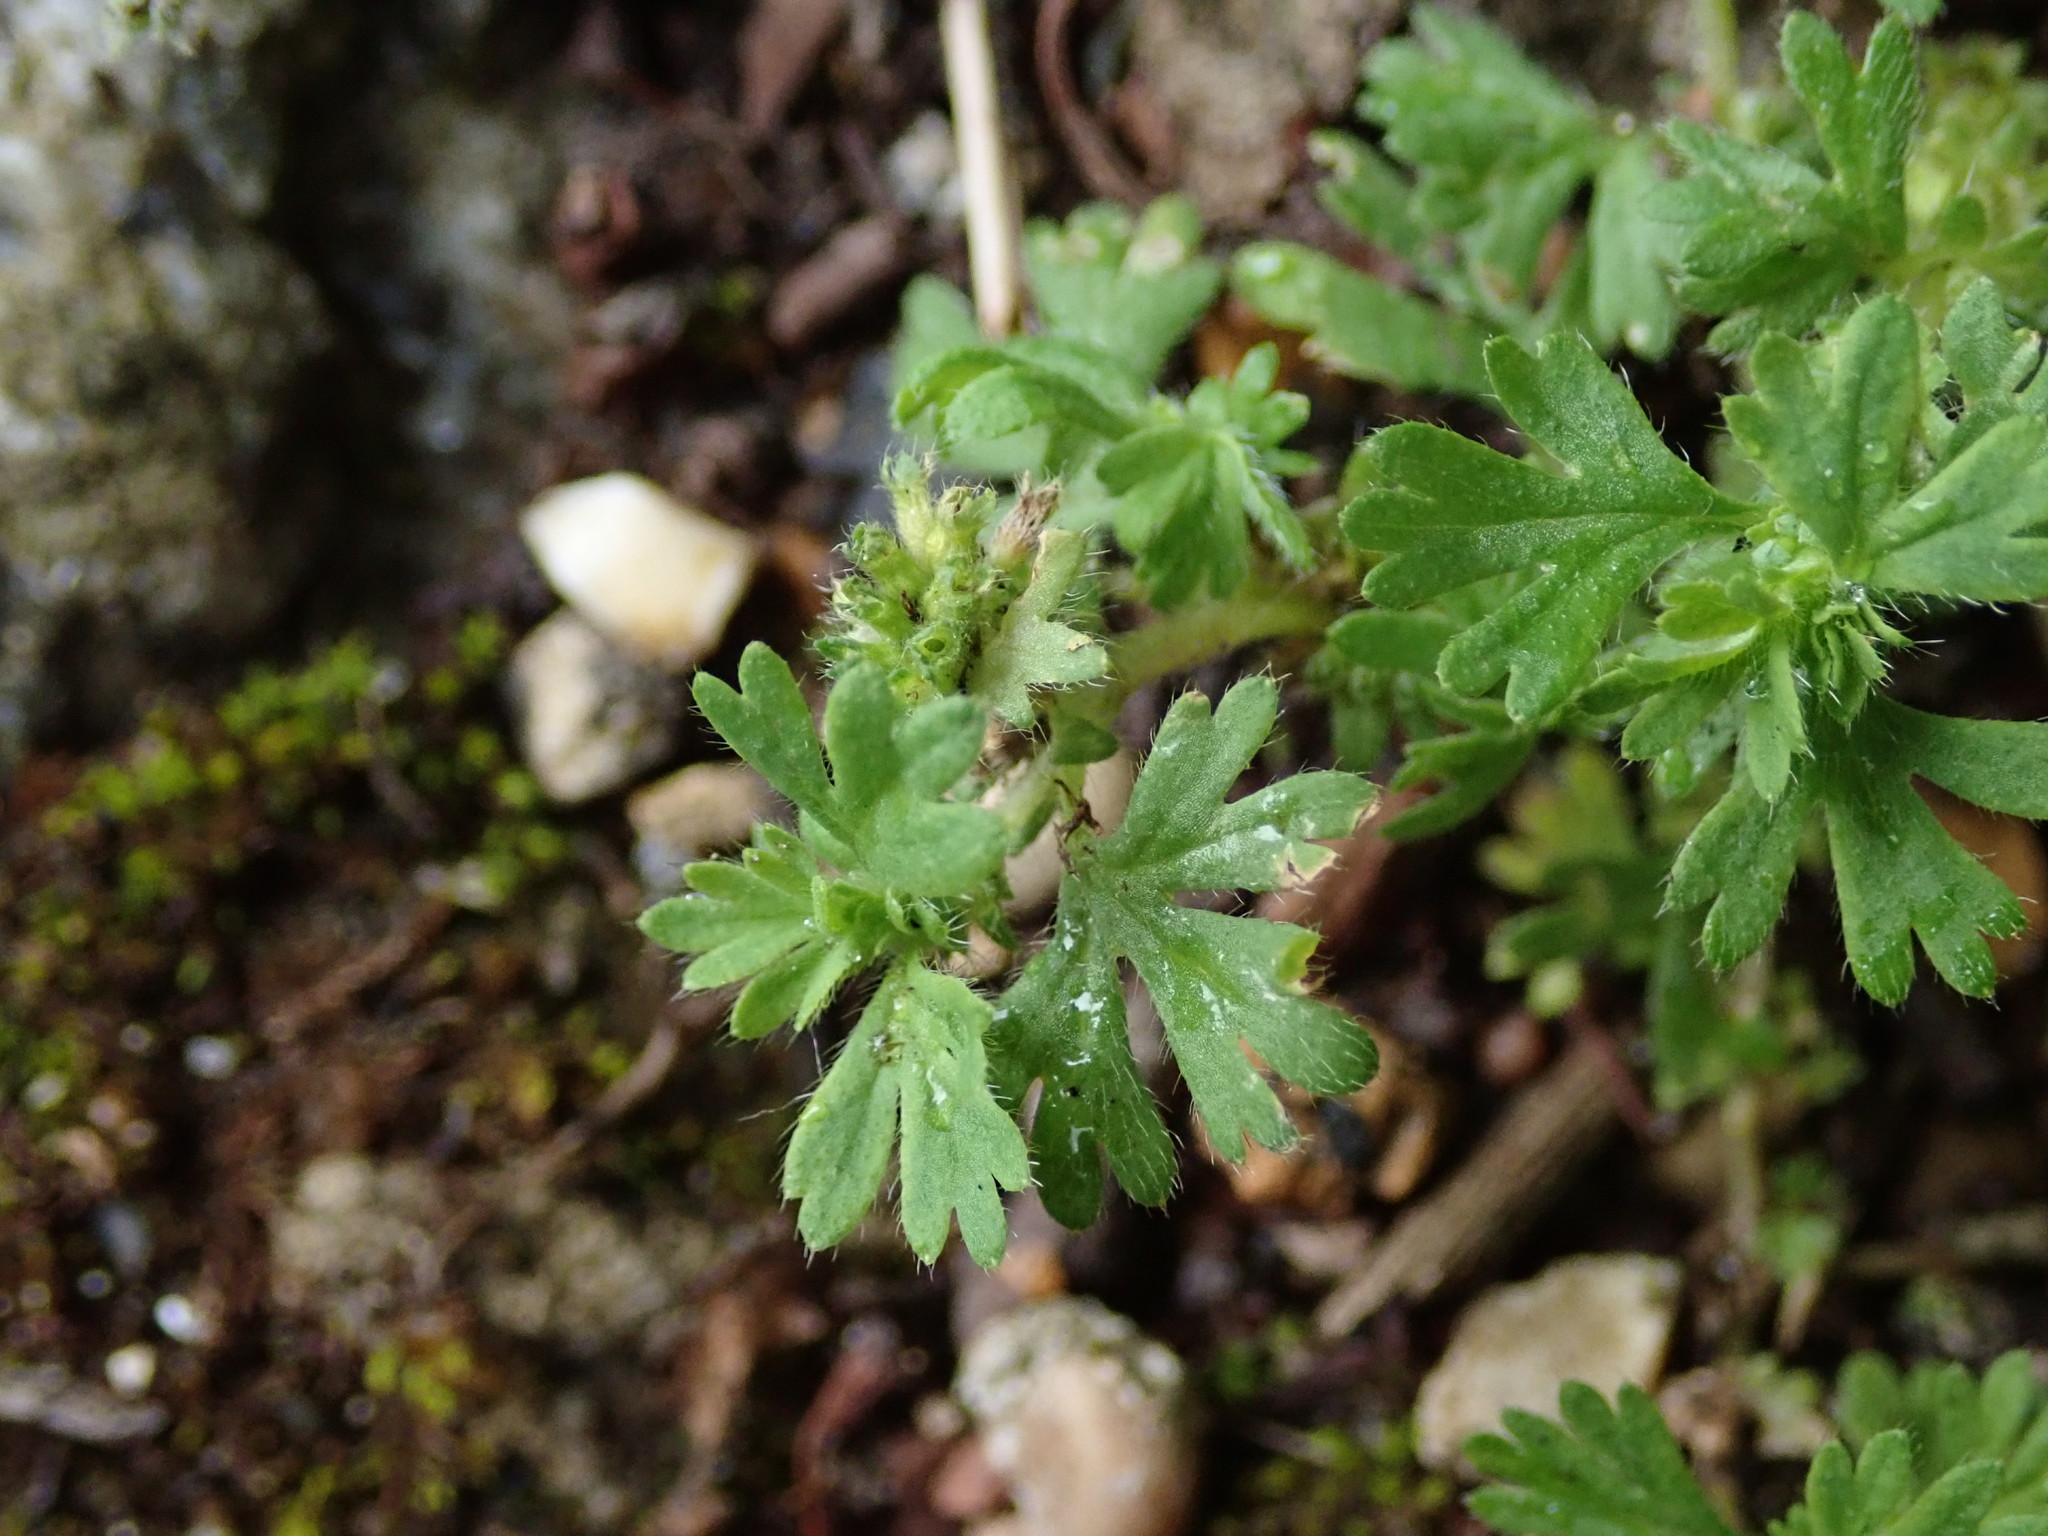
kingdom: Plantae
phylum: Tracheophyta
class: Magnoliopsida
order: Rosales
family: Rosaceae
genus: Aphanes
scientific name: Aphanes australis
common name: Slender parsley-piert
